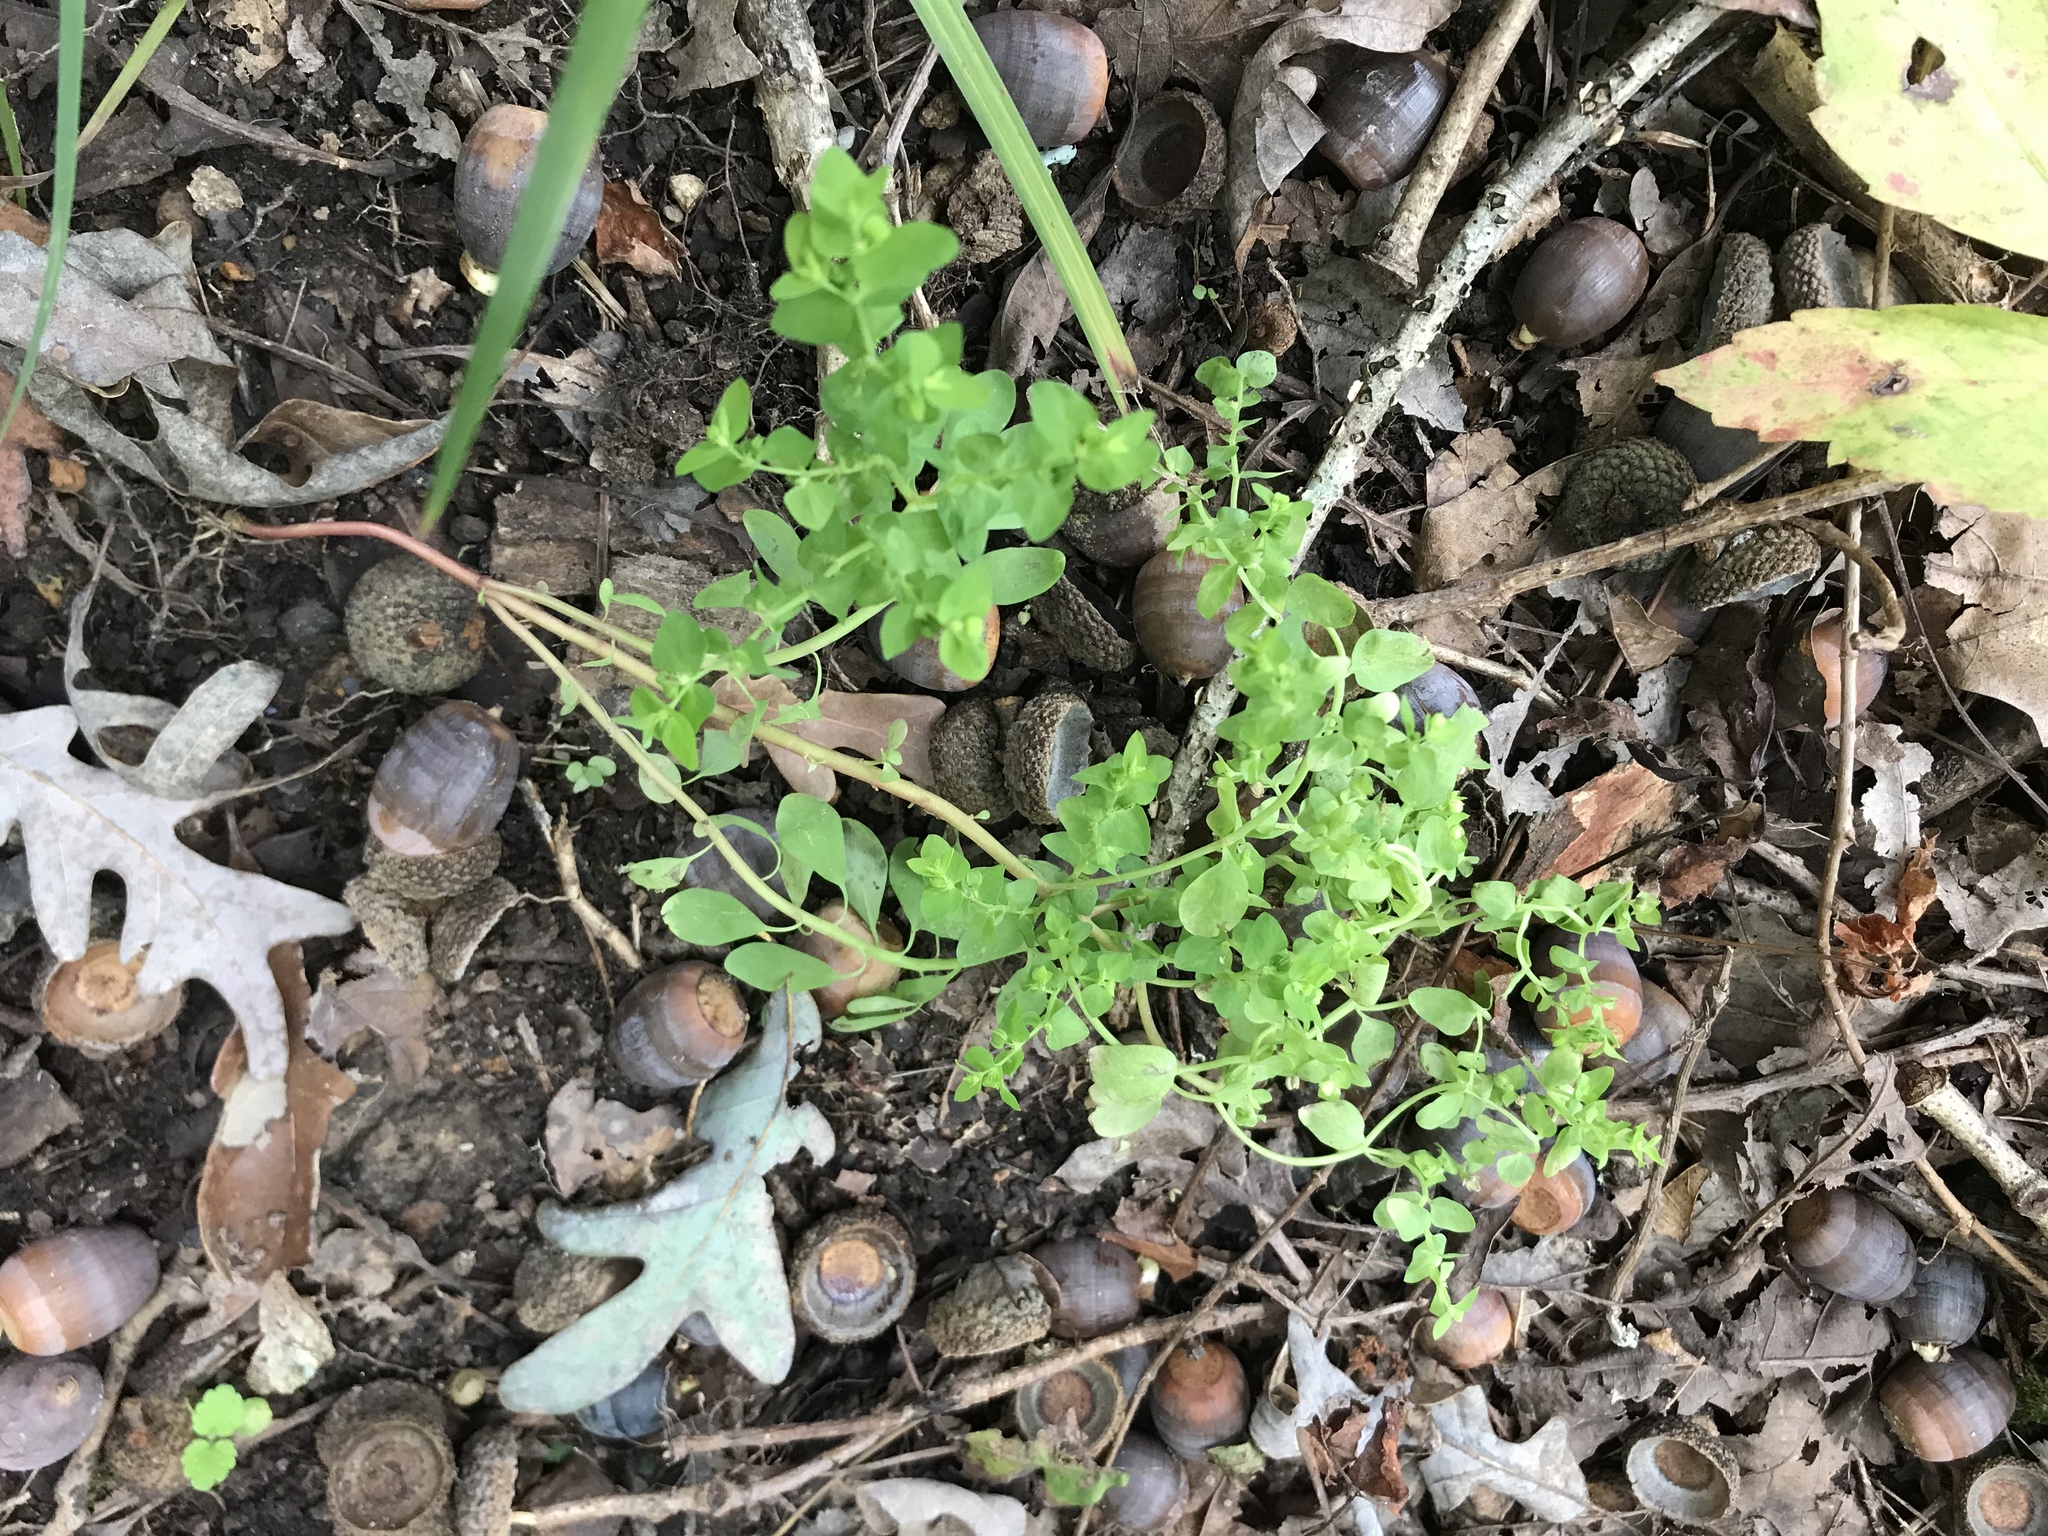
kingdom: Plantae
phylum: Tracheophyta
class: Magnoliopsida
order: Malpighiales
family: Euphorbiaceae
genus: Euphorbia
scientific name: Euphorbia peplus
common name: Petty spurge
